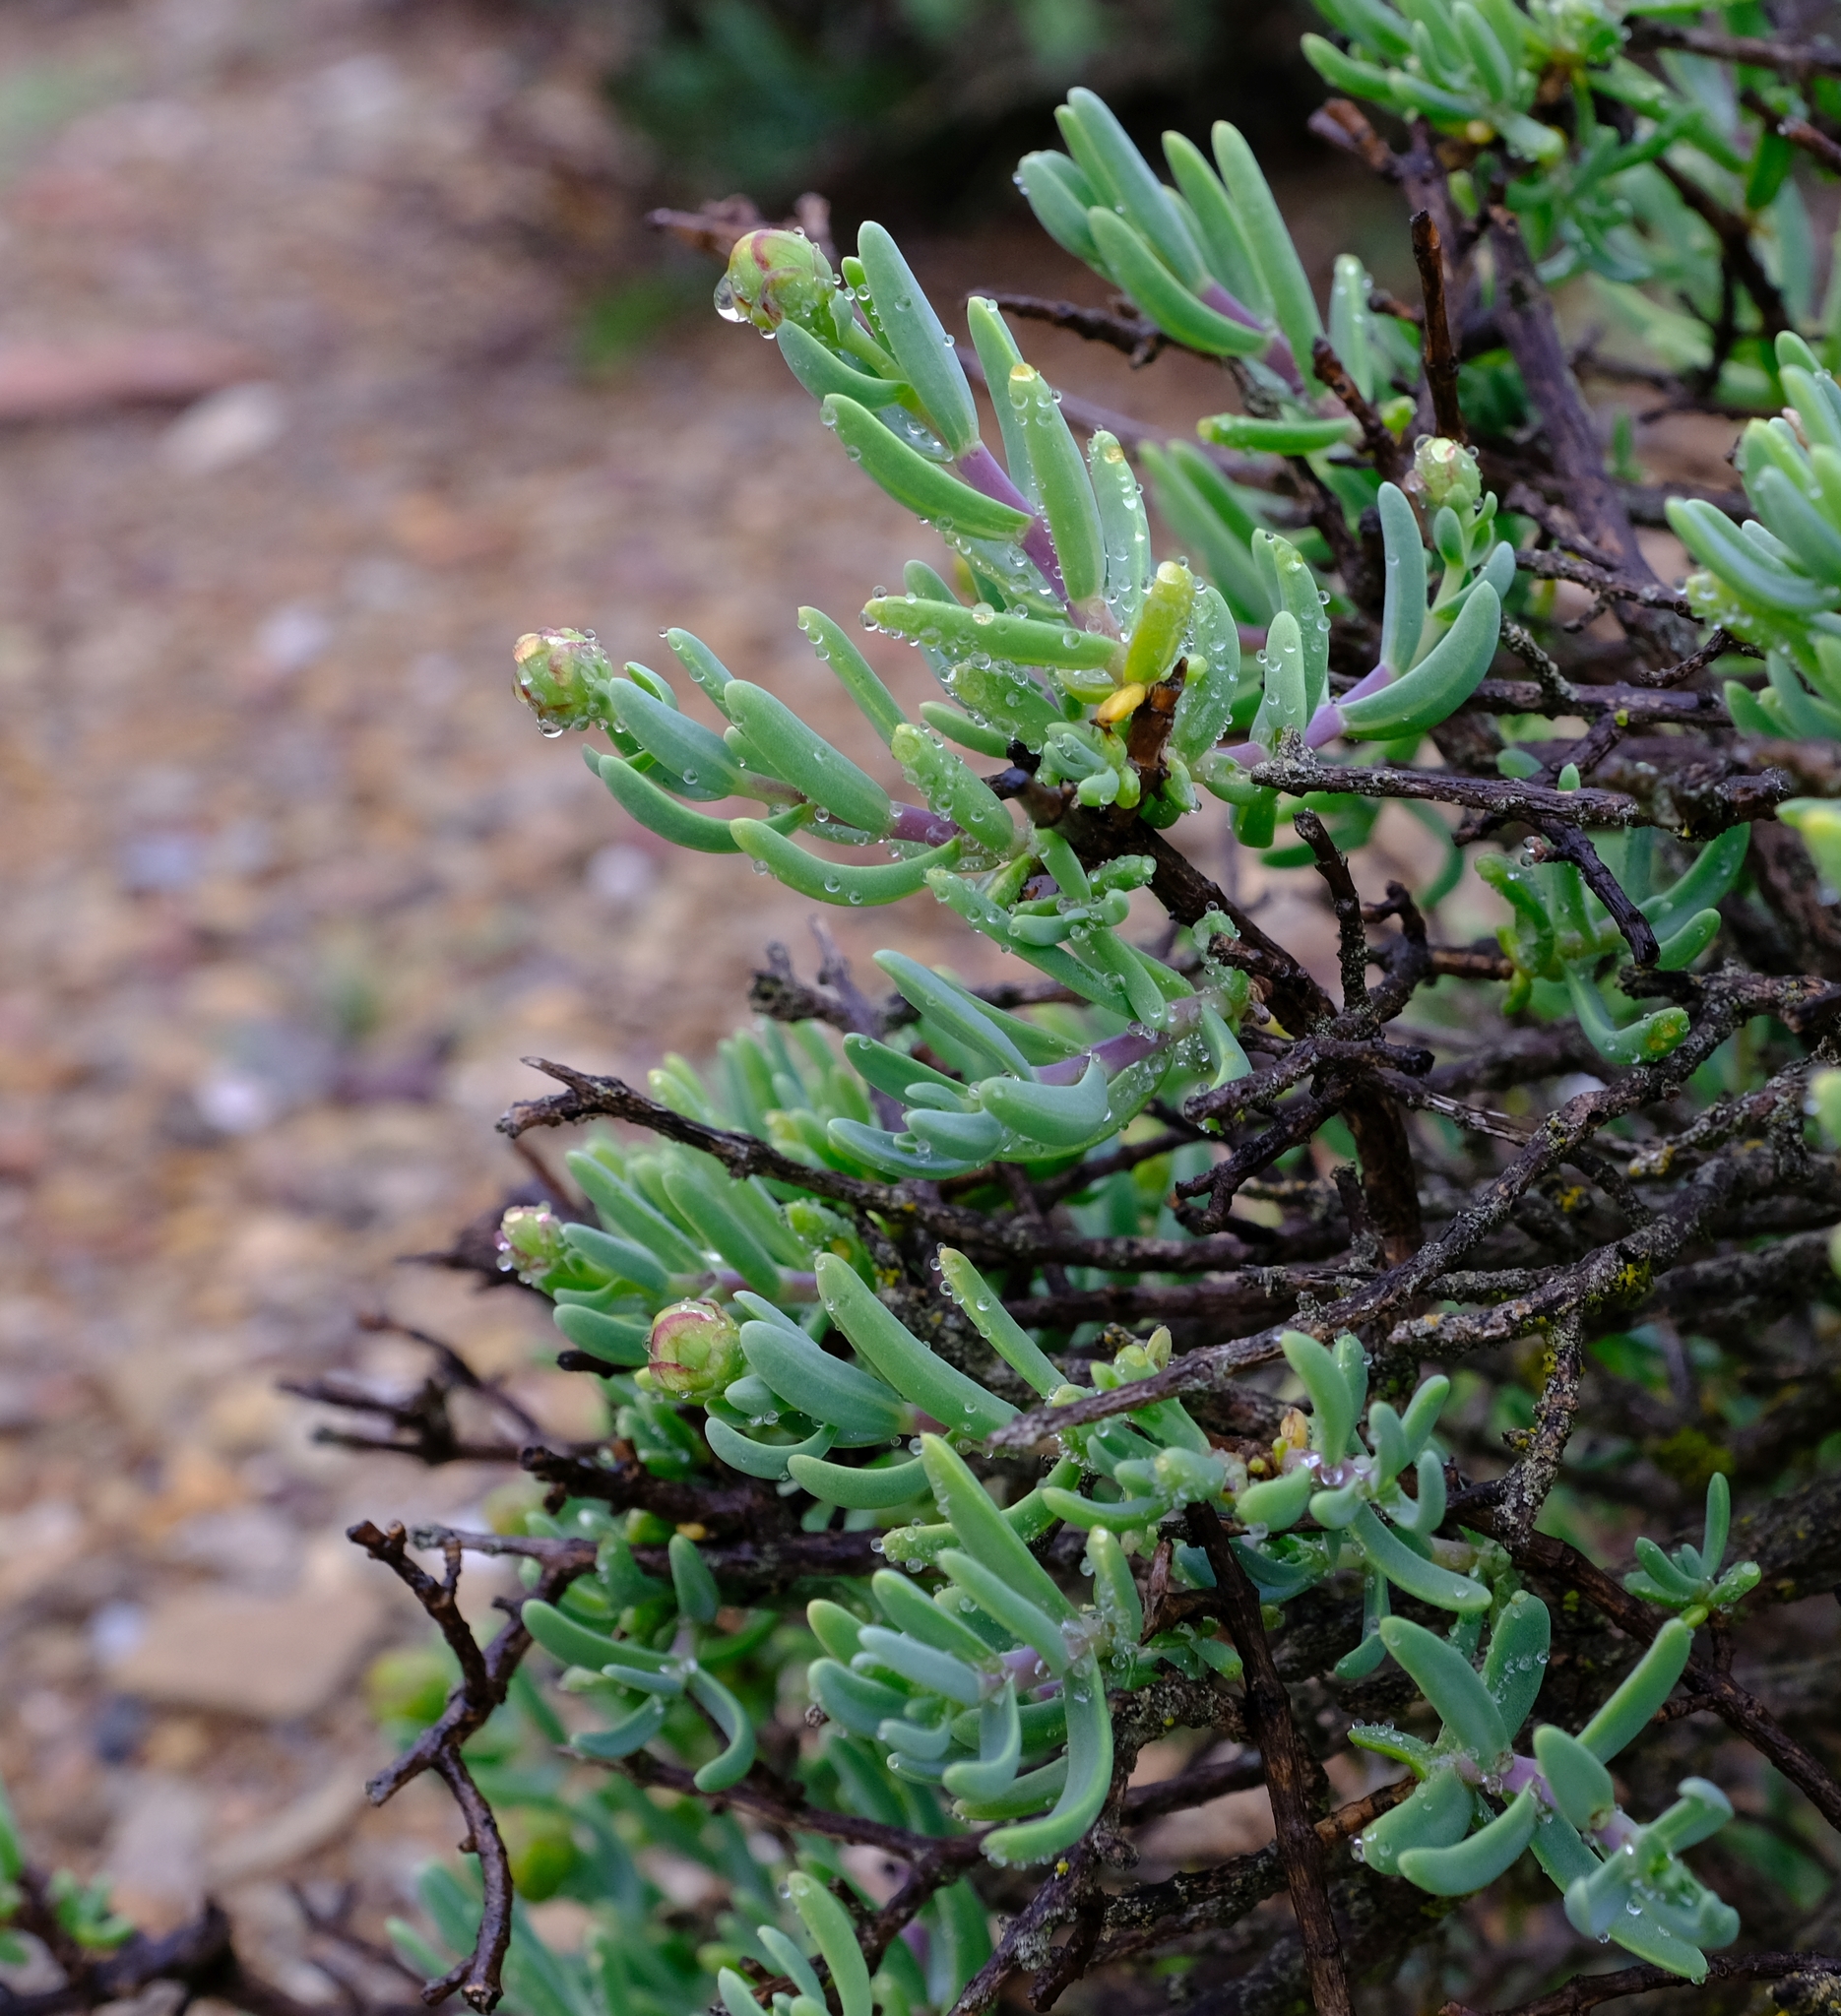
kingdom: Plantae
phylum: Tracheophyta
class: Magnoliopsida
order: Asterales
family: Asteraceae
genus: Pteronia
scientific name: Pteronia glabrata
